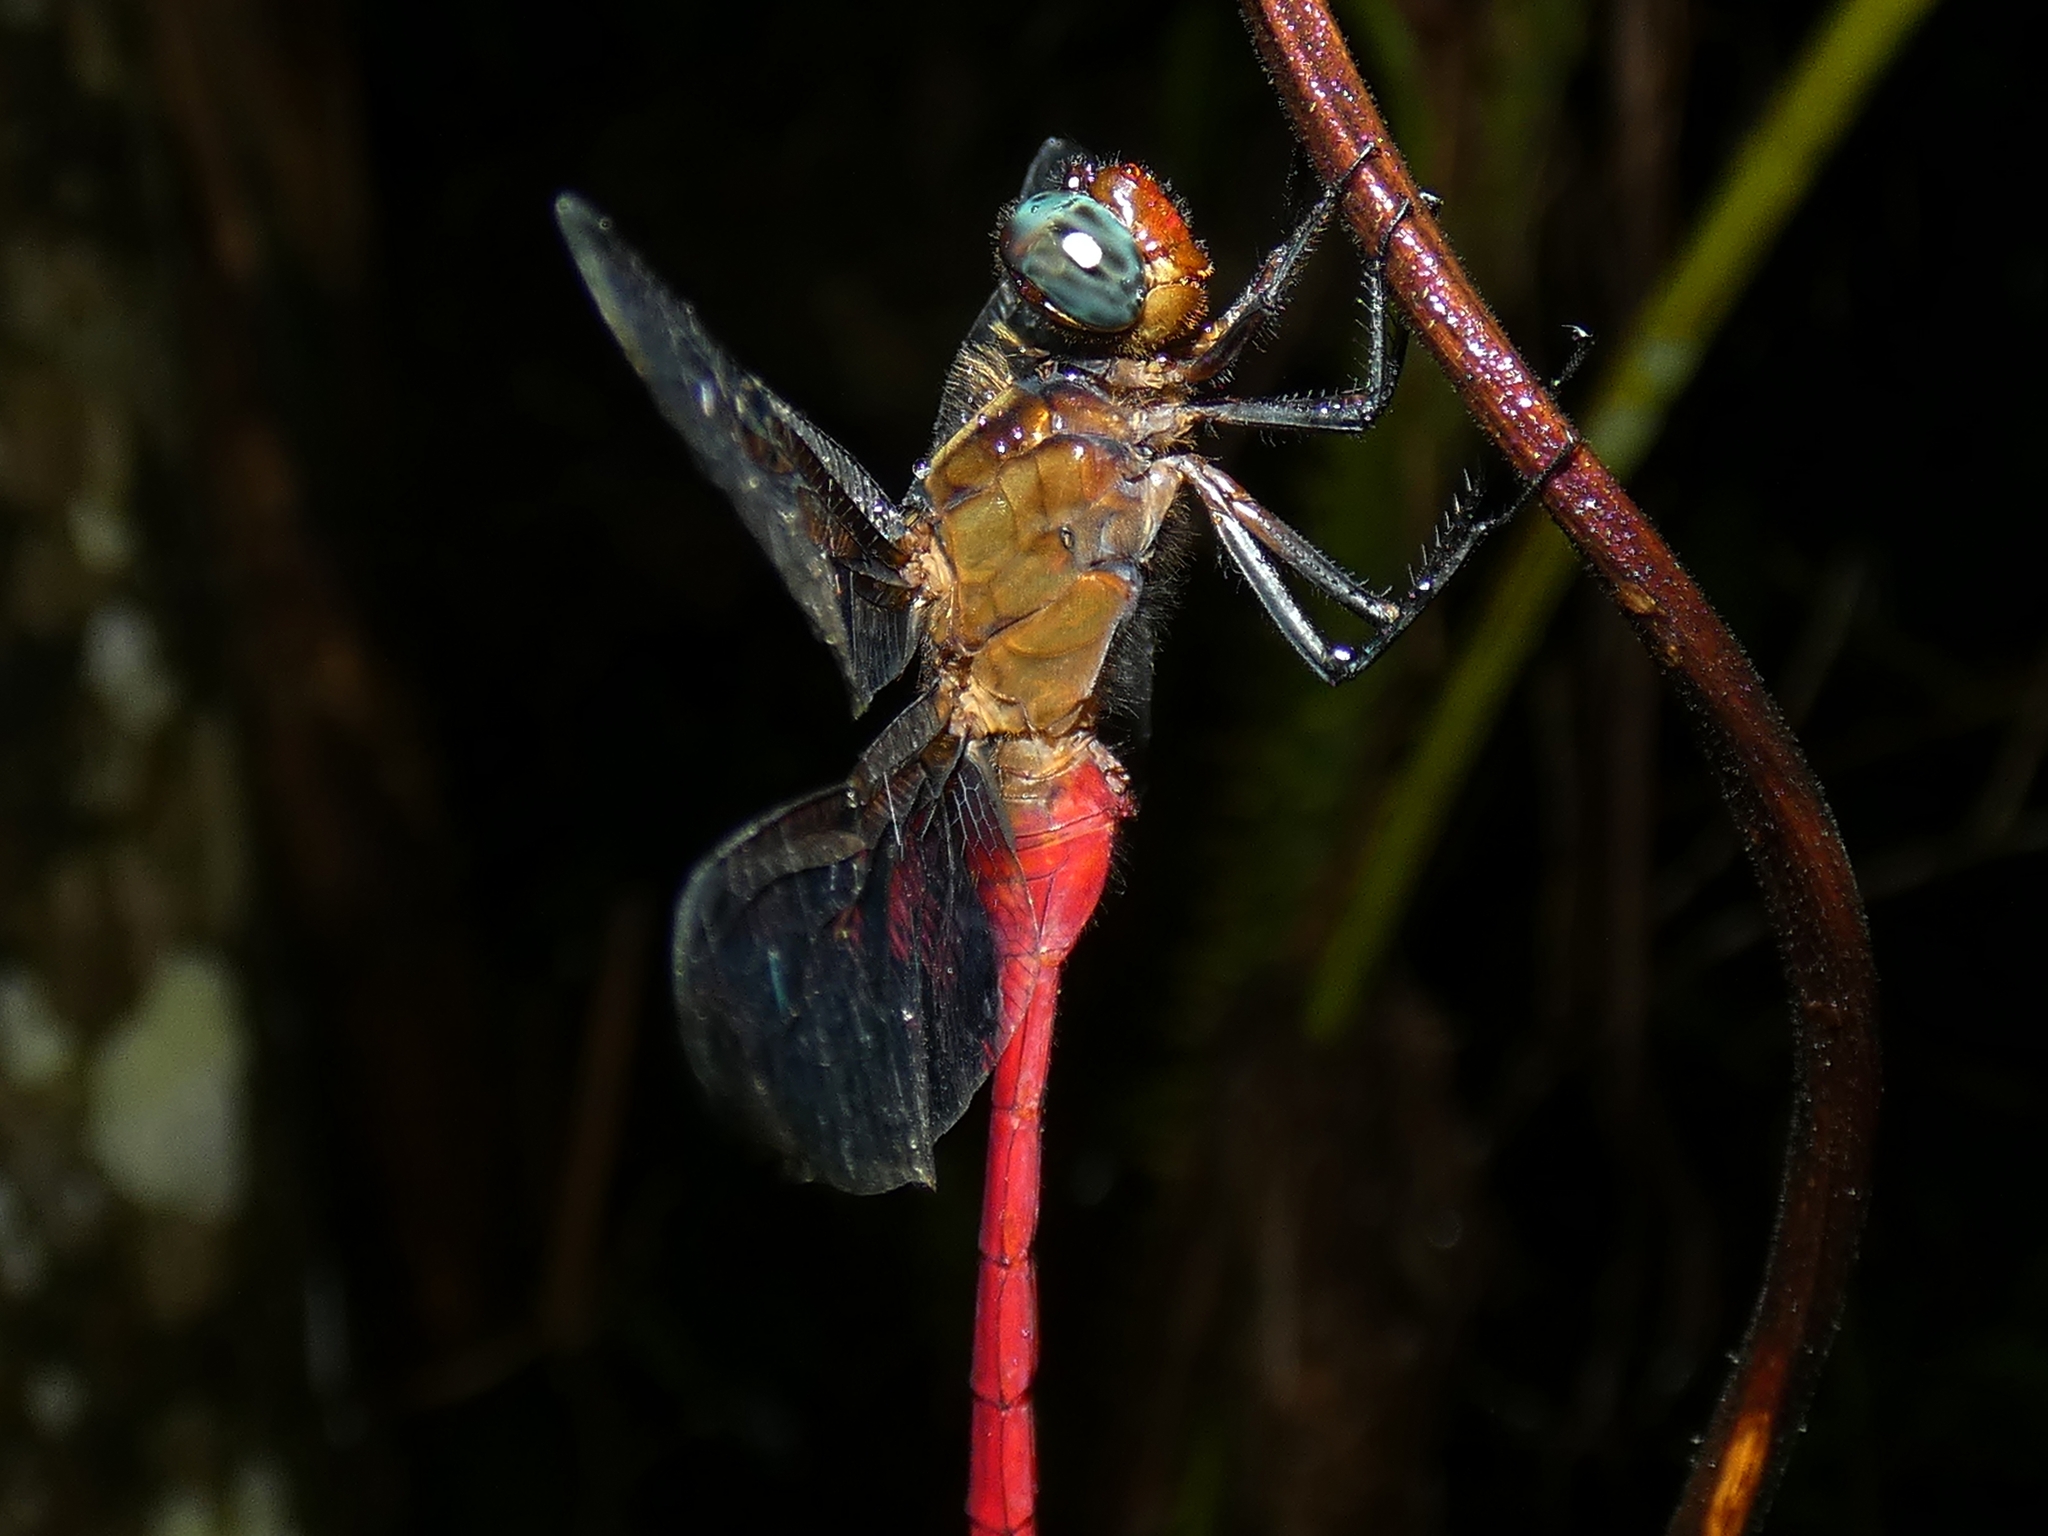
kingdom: Animalia
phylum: Arthropoda
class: Insecta
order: Odonata
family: Libellulidae
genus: Orthetrum
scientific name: Orthetrum villosovittatum
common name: Firery skimmer
